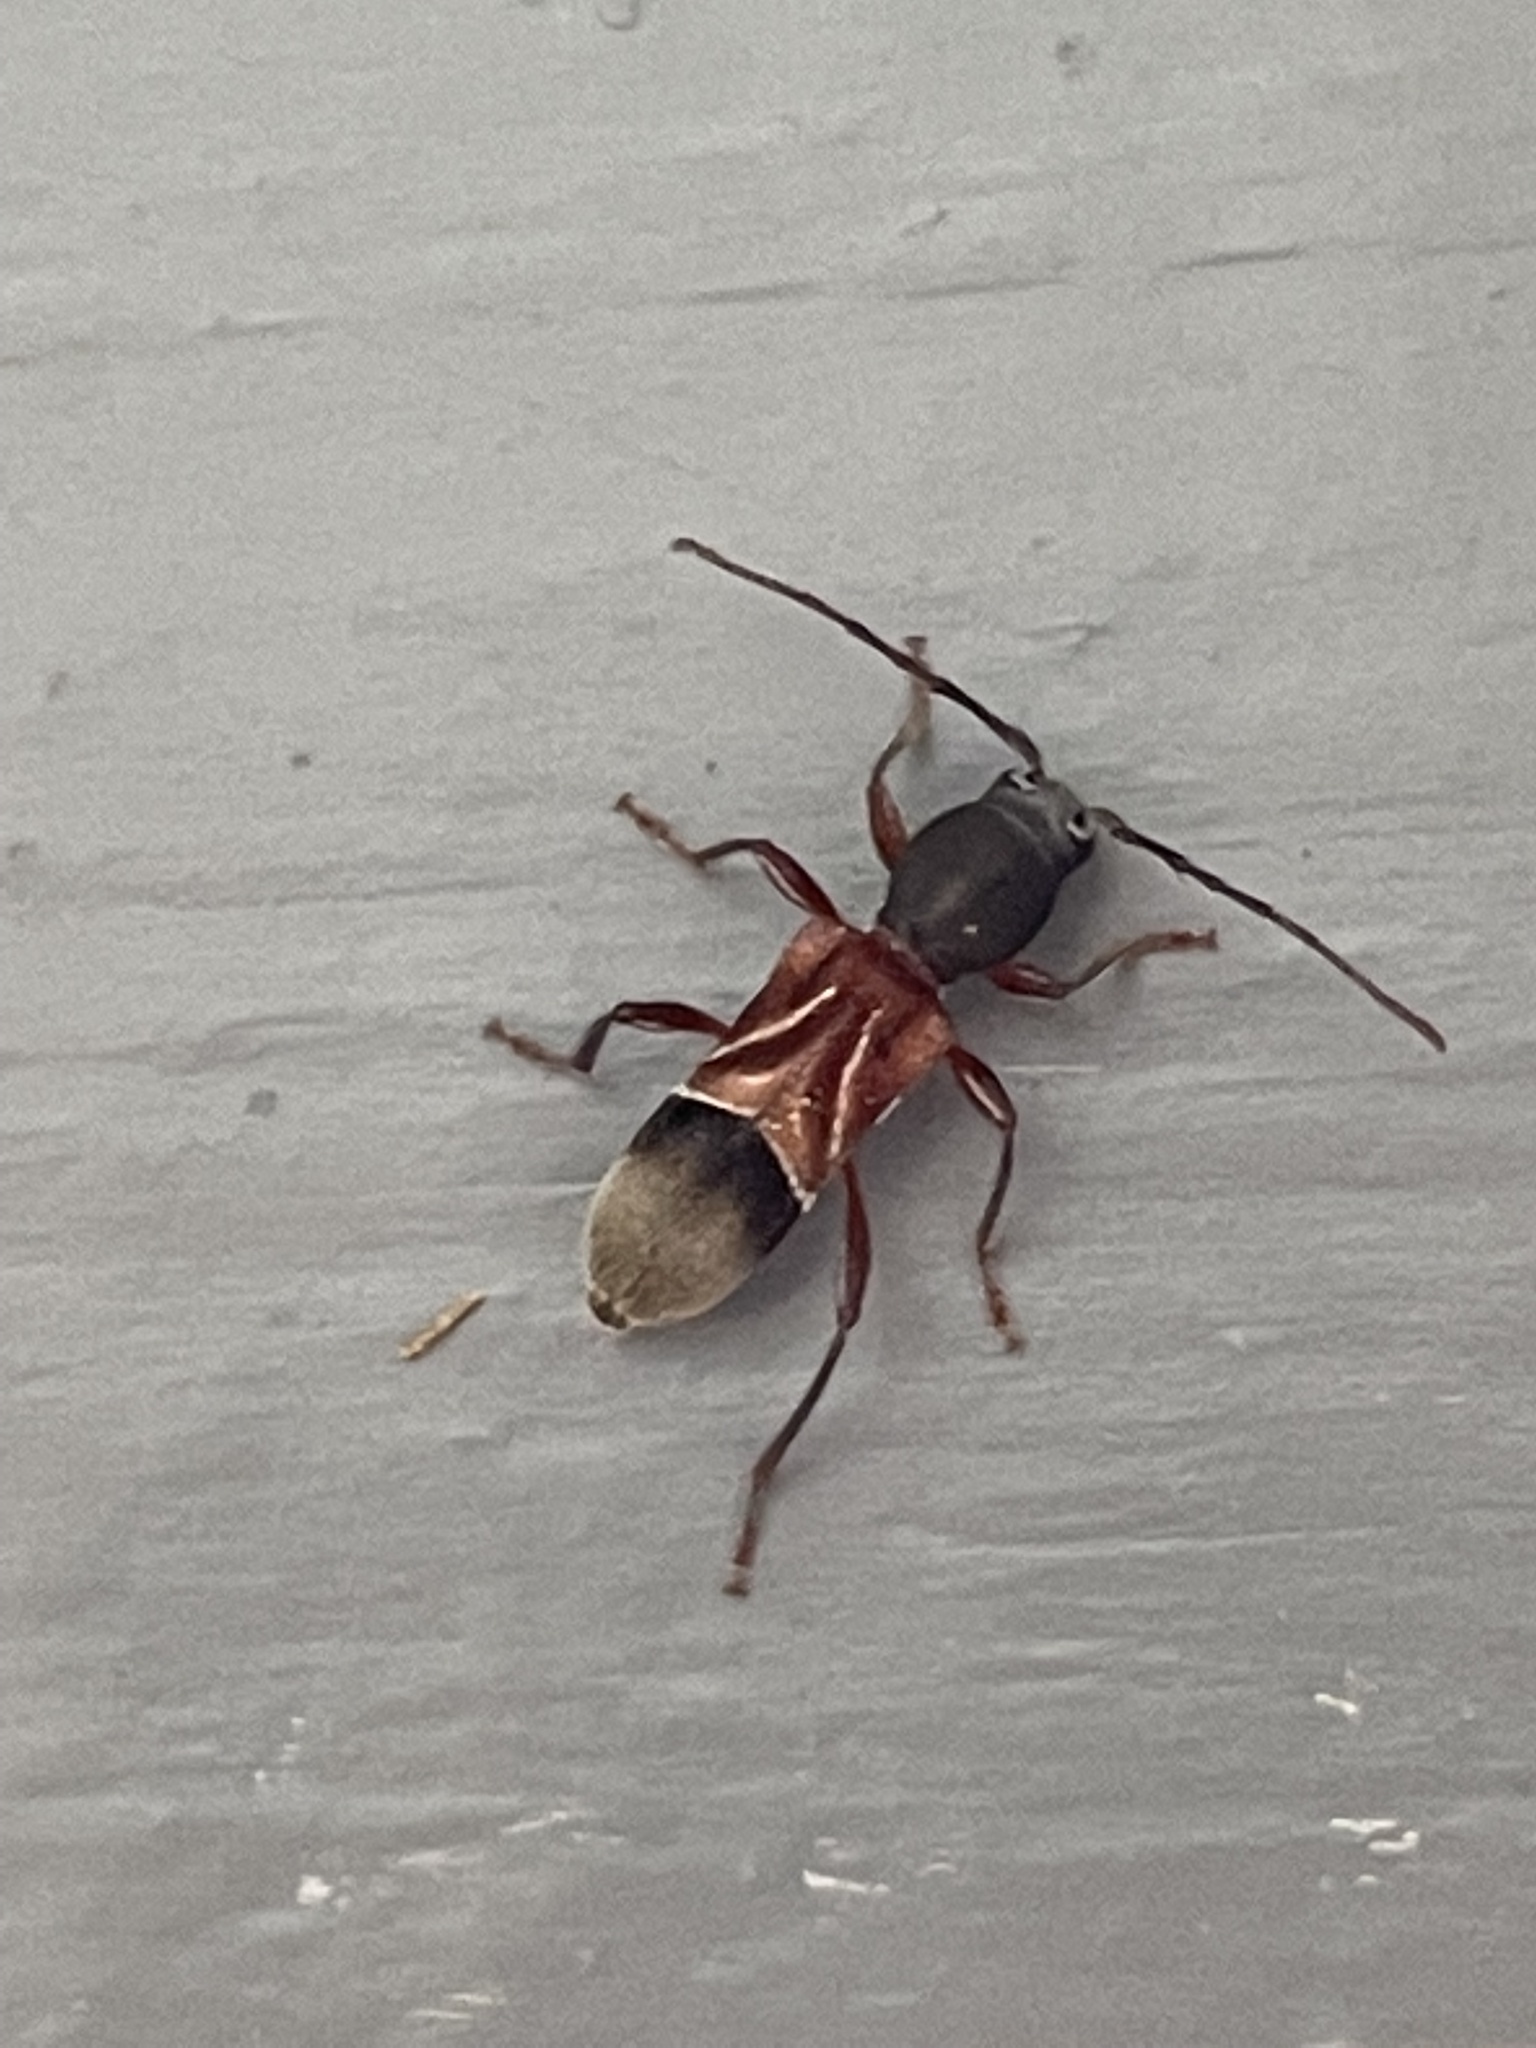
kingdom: Animalia
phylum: Arthropoda
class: Insecta
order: Coleoptera
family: Cerambycidae
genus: Cyrtophorus
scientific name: Cyrtophorus verrucosus
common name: Ant-like longhorn beetle
